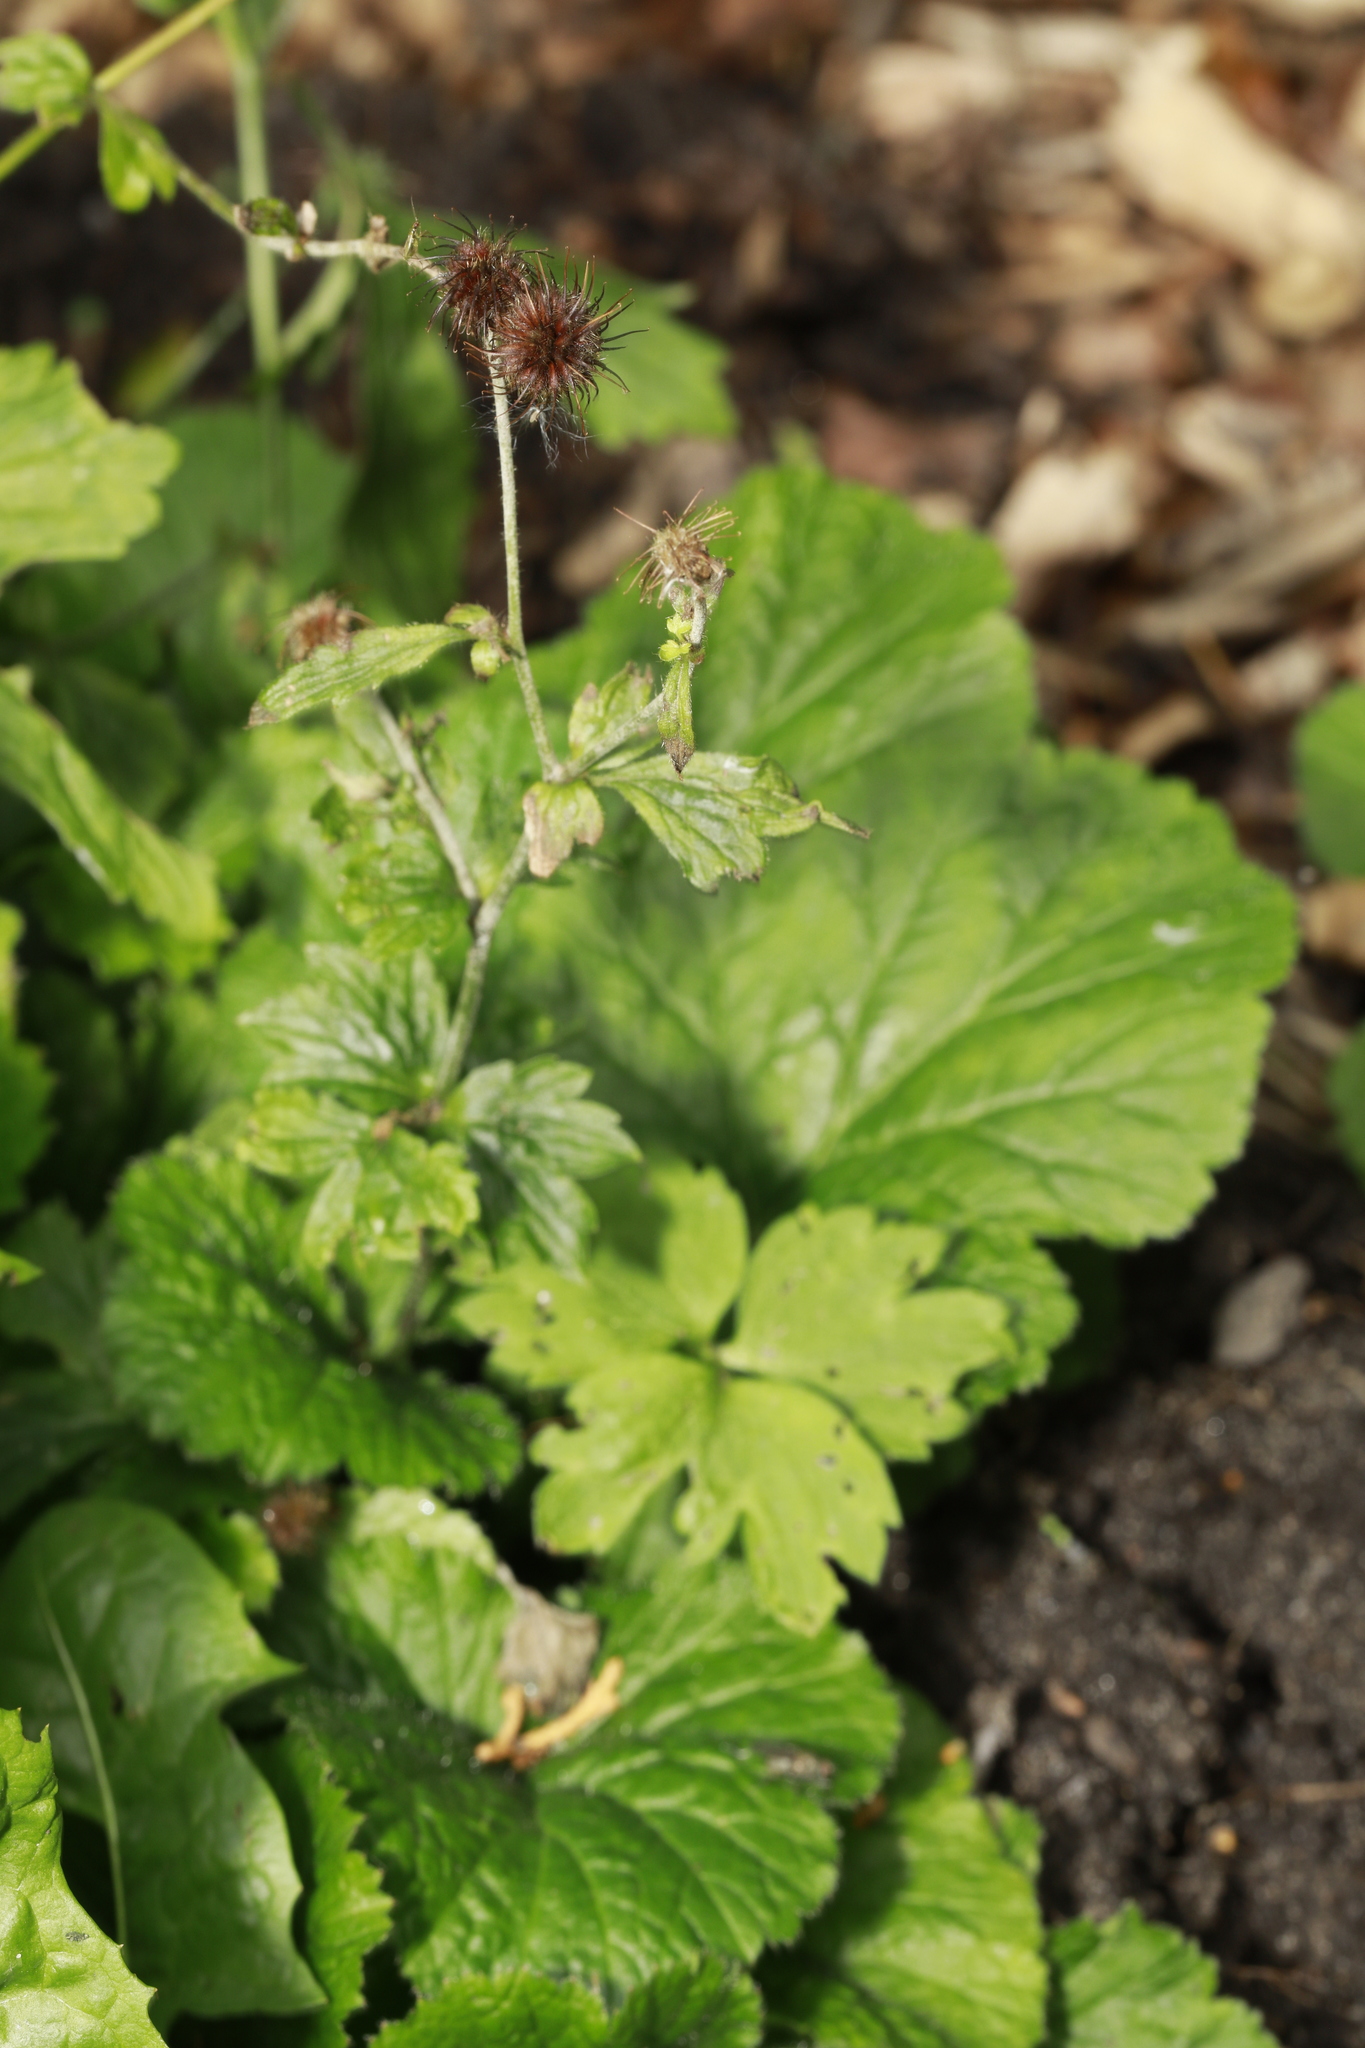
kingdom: Plantae
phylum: Tracheophyta
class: Magnoliopsida
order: Rosales
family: Rosaceae
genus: Geum
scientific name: Geum urbanum
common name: Wood avens
